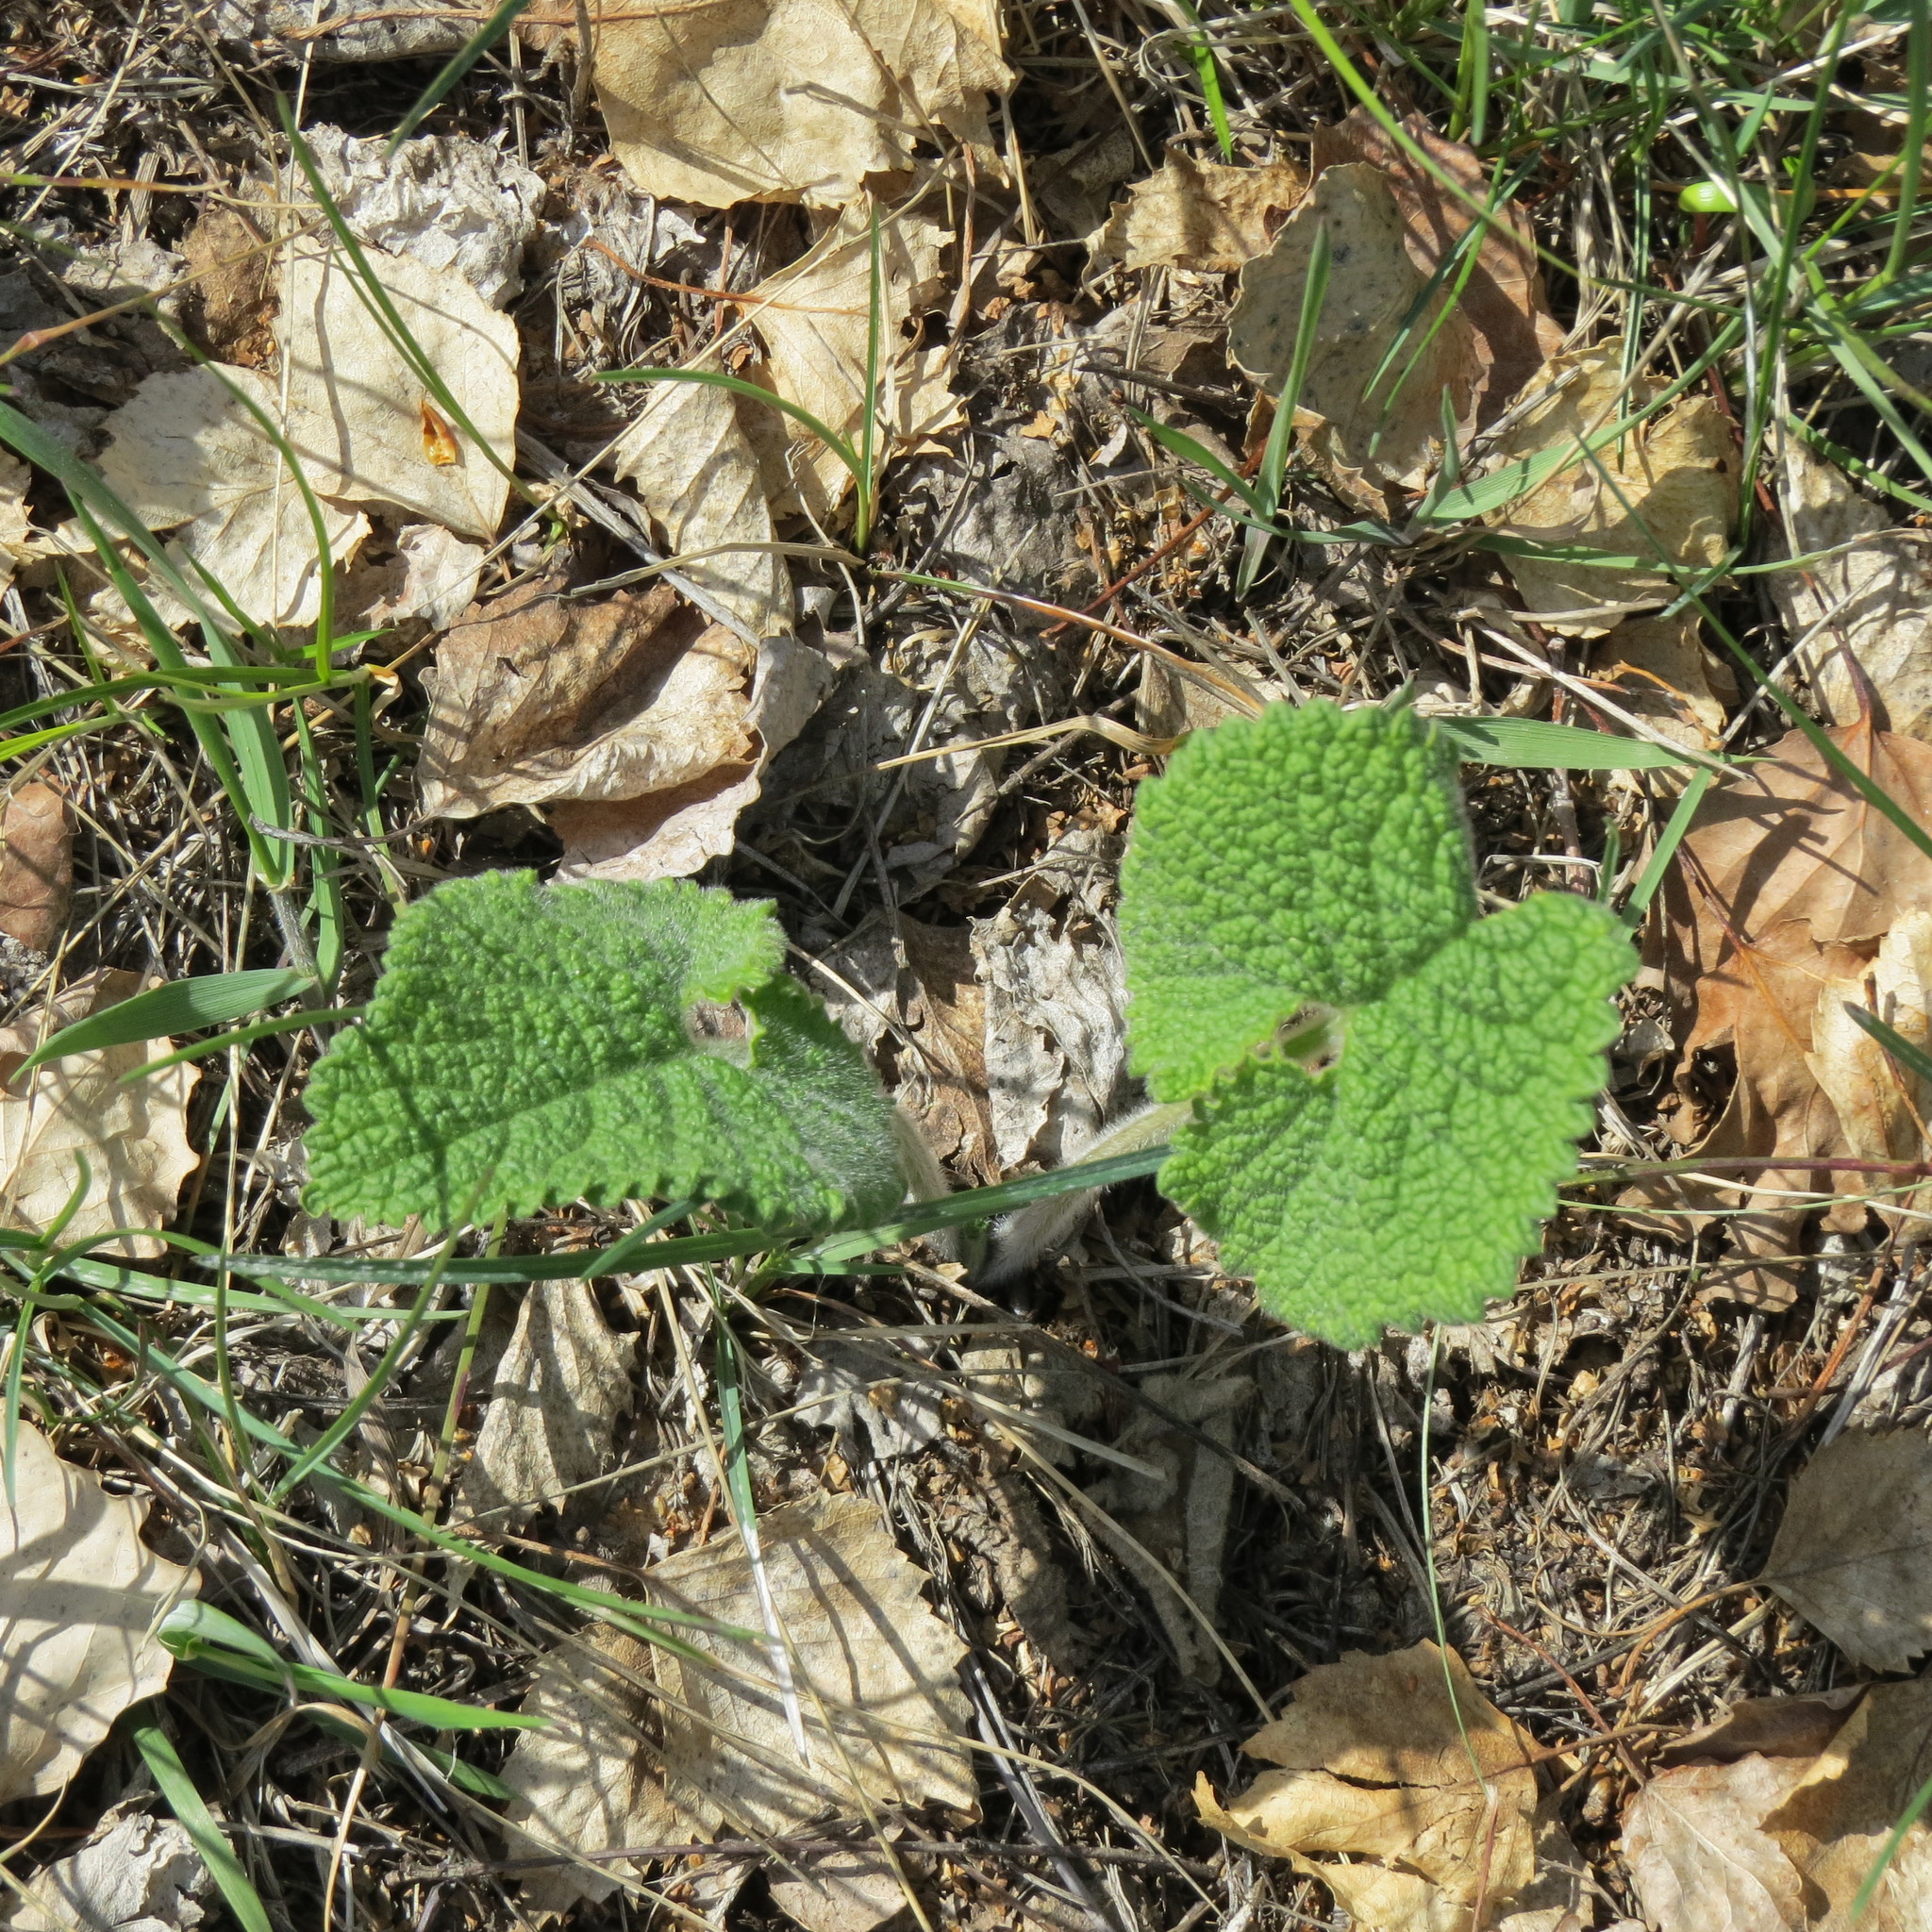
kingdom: Plantae
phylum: Tracheophyta
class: Magnoliopsida
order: Lamiales
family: Lamiaceae
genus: Phlomoides
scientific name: Phlomoides tuberosa
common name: Tuberous jerusalem sage
